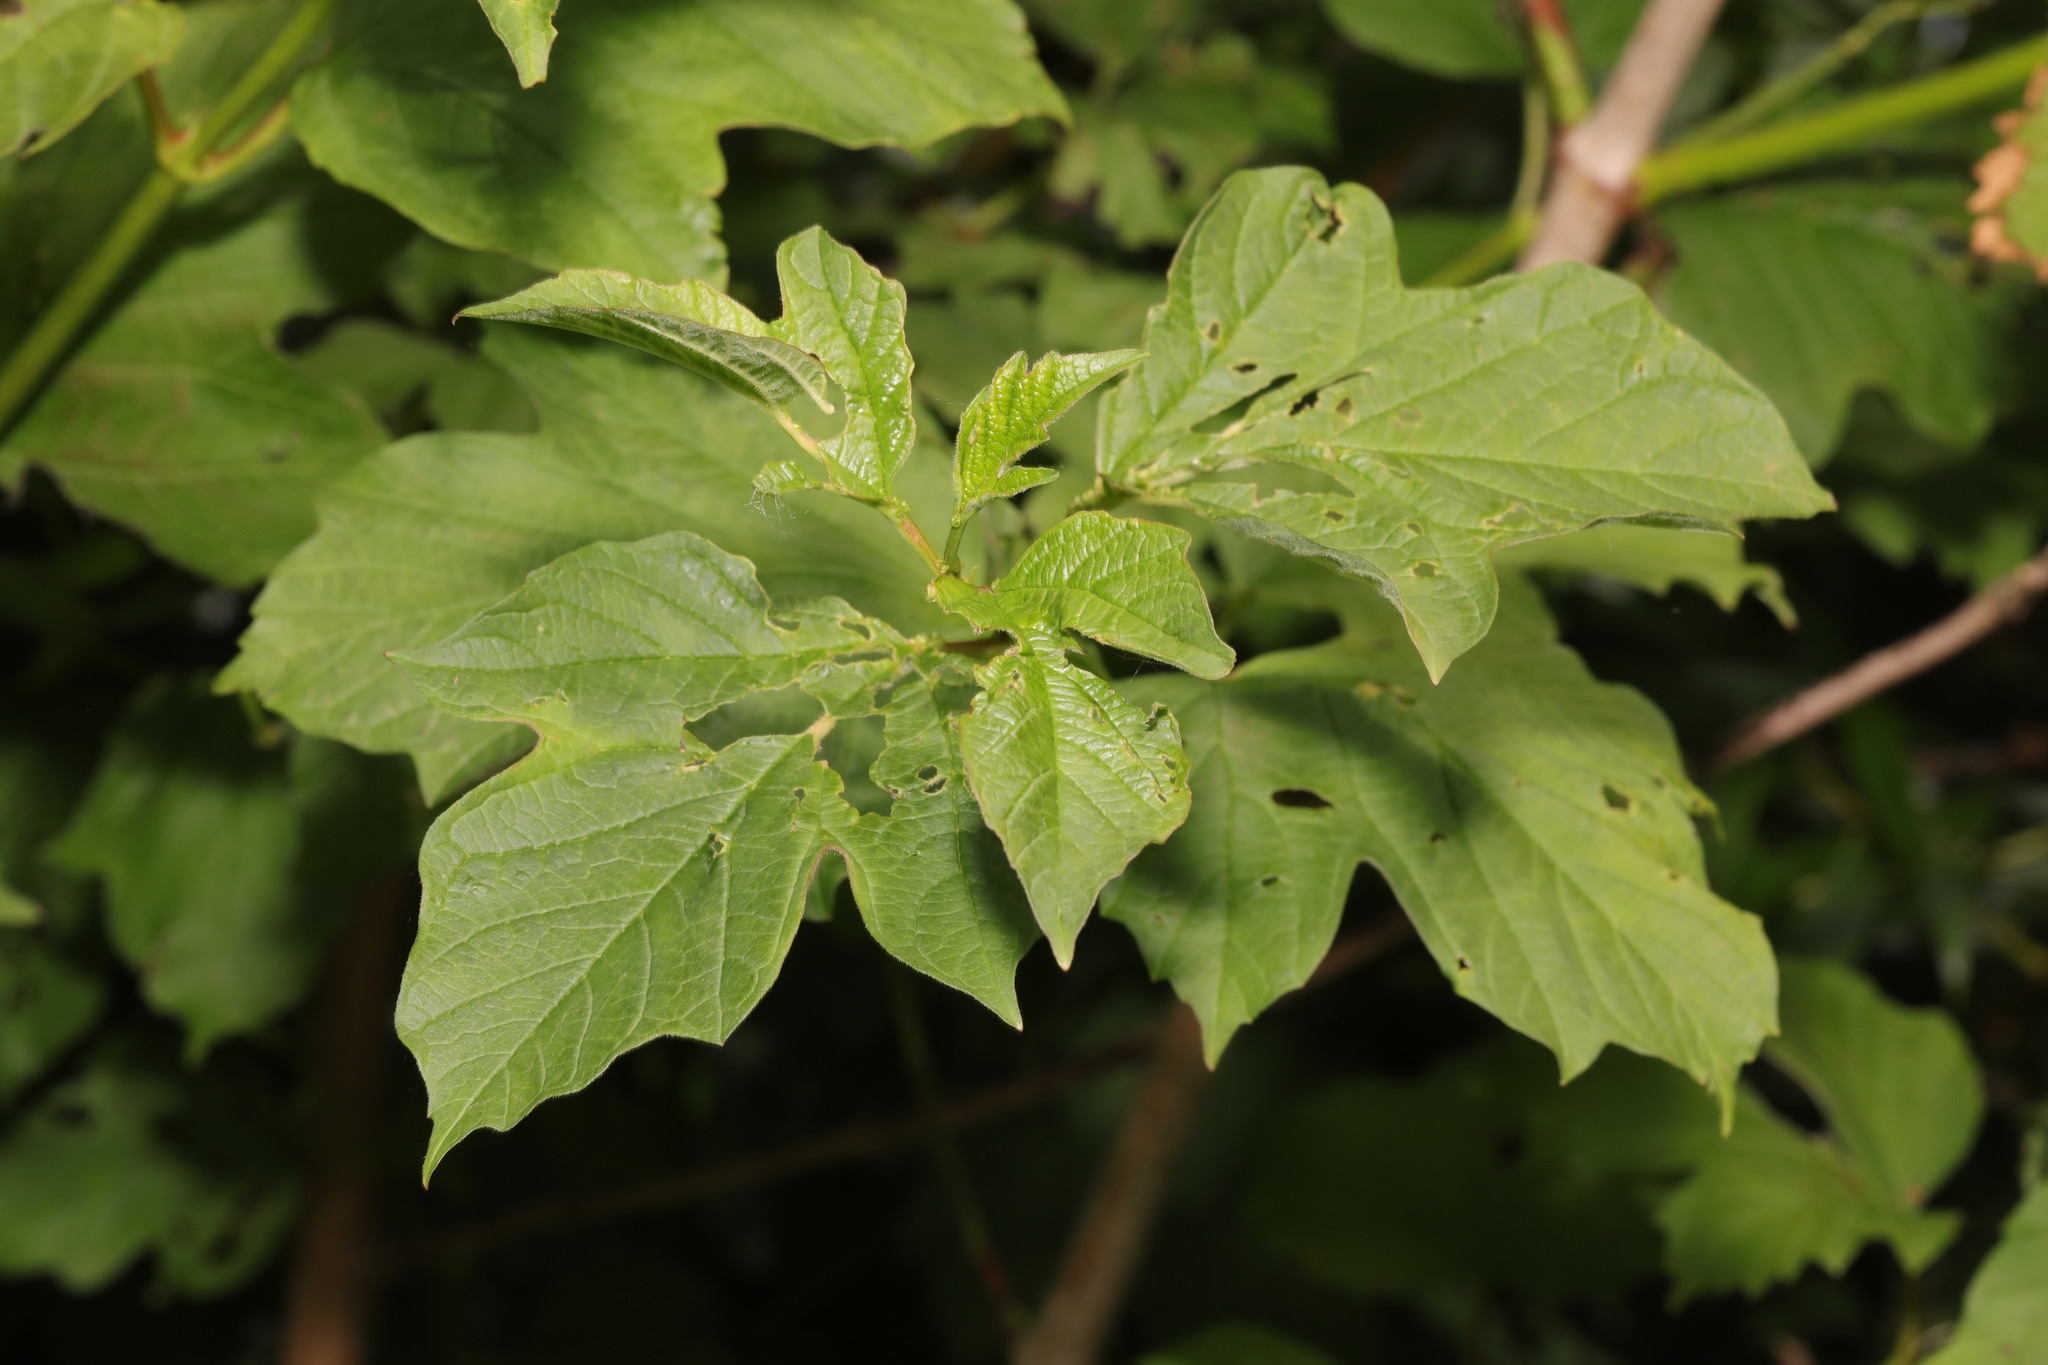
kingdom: Plantae
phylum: Tracheophyta
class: Magnoliopsida
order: Dipsacales
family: Viburnaceae
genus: Viburnum
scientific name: Viburnum opulus
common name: Guelder-rose
